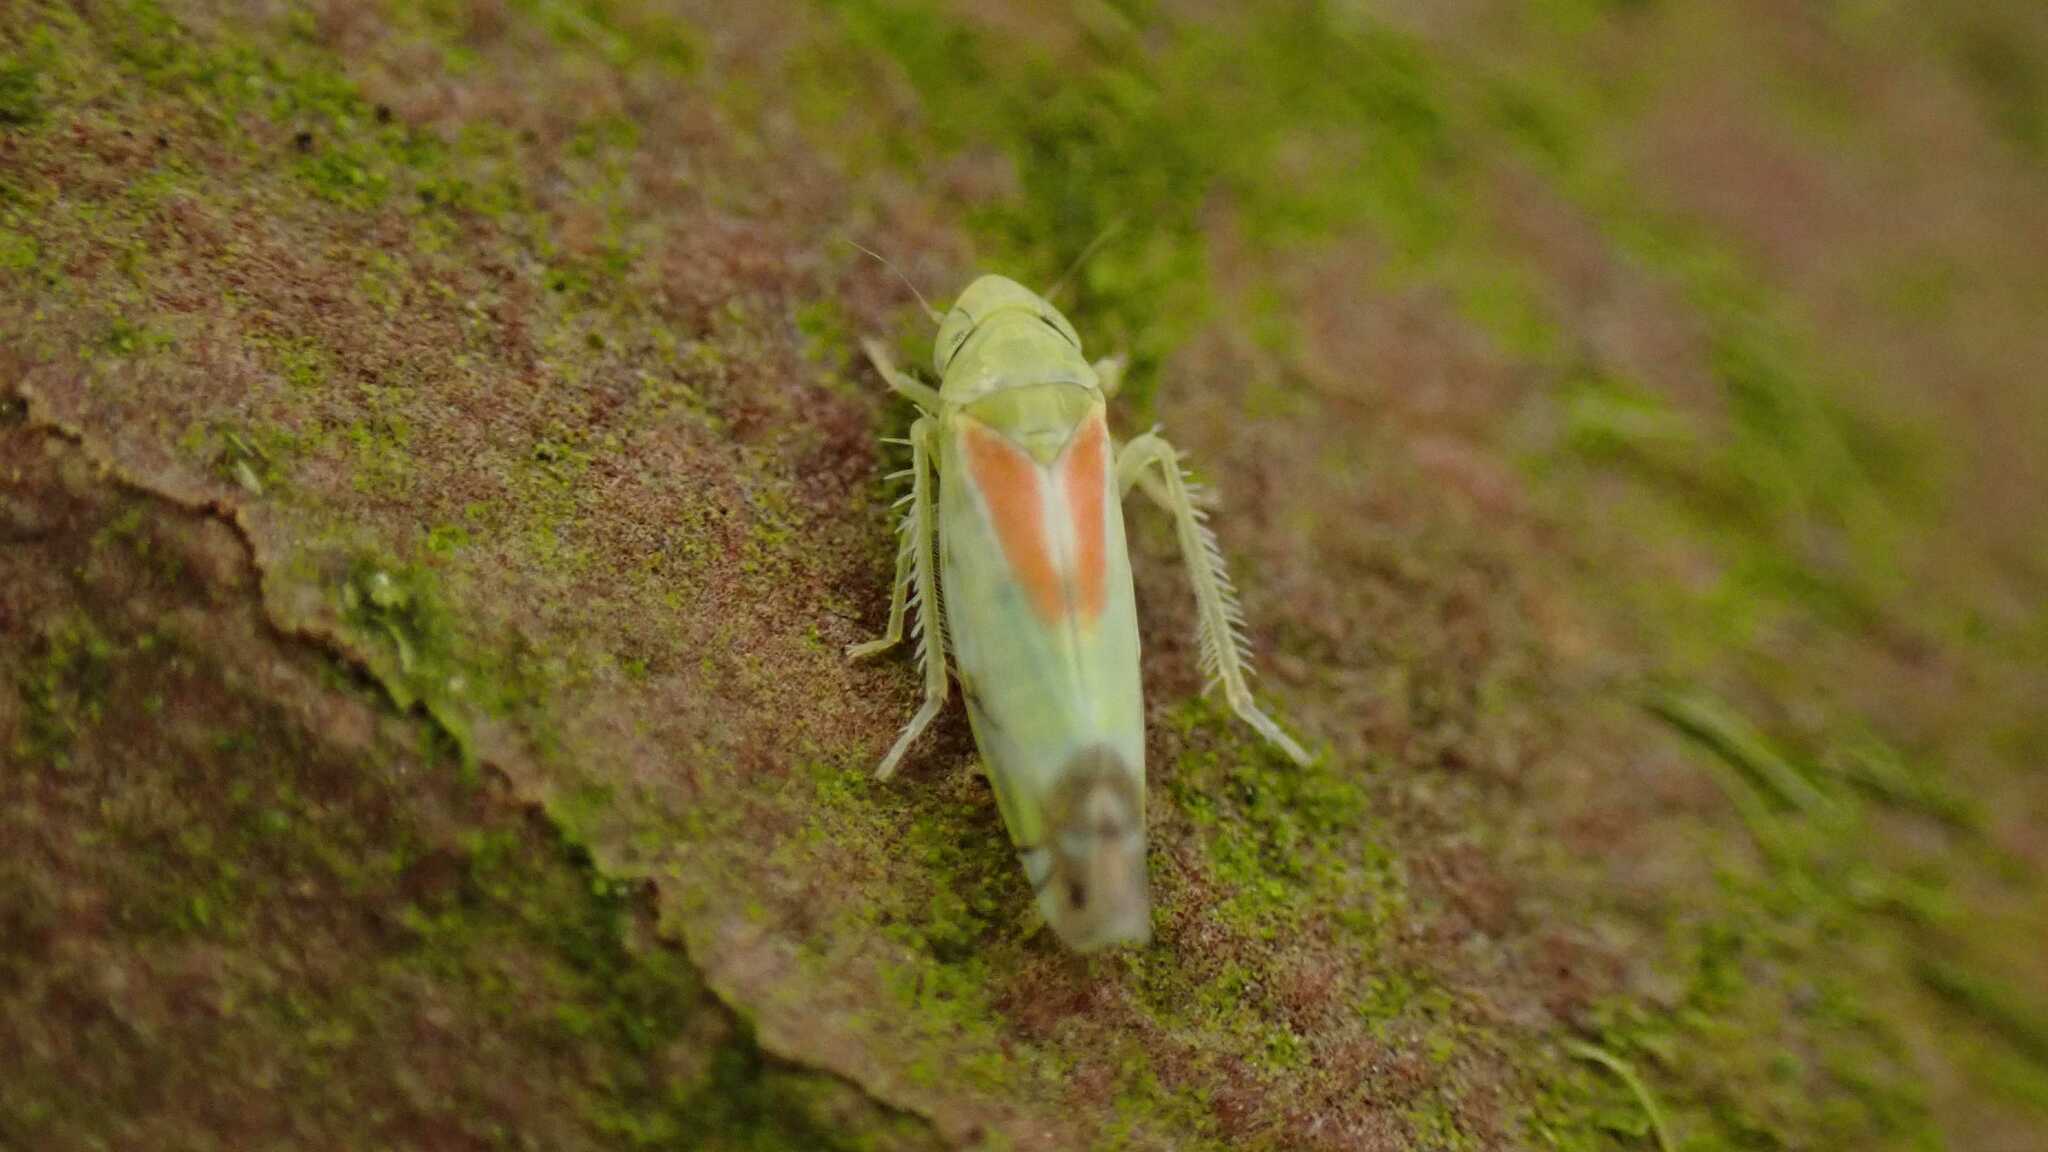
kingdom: Animalia
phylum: Arthropoda
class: Insecta
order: Hemiptera
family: Cicadellidae
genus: Zyginella
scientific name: Zyginella pulchra
